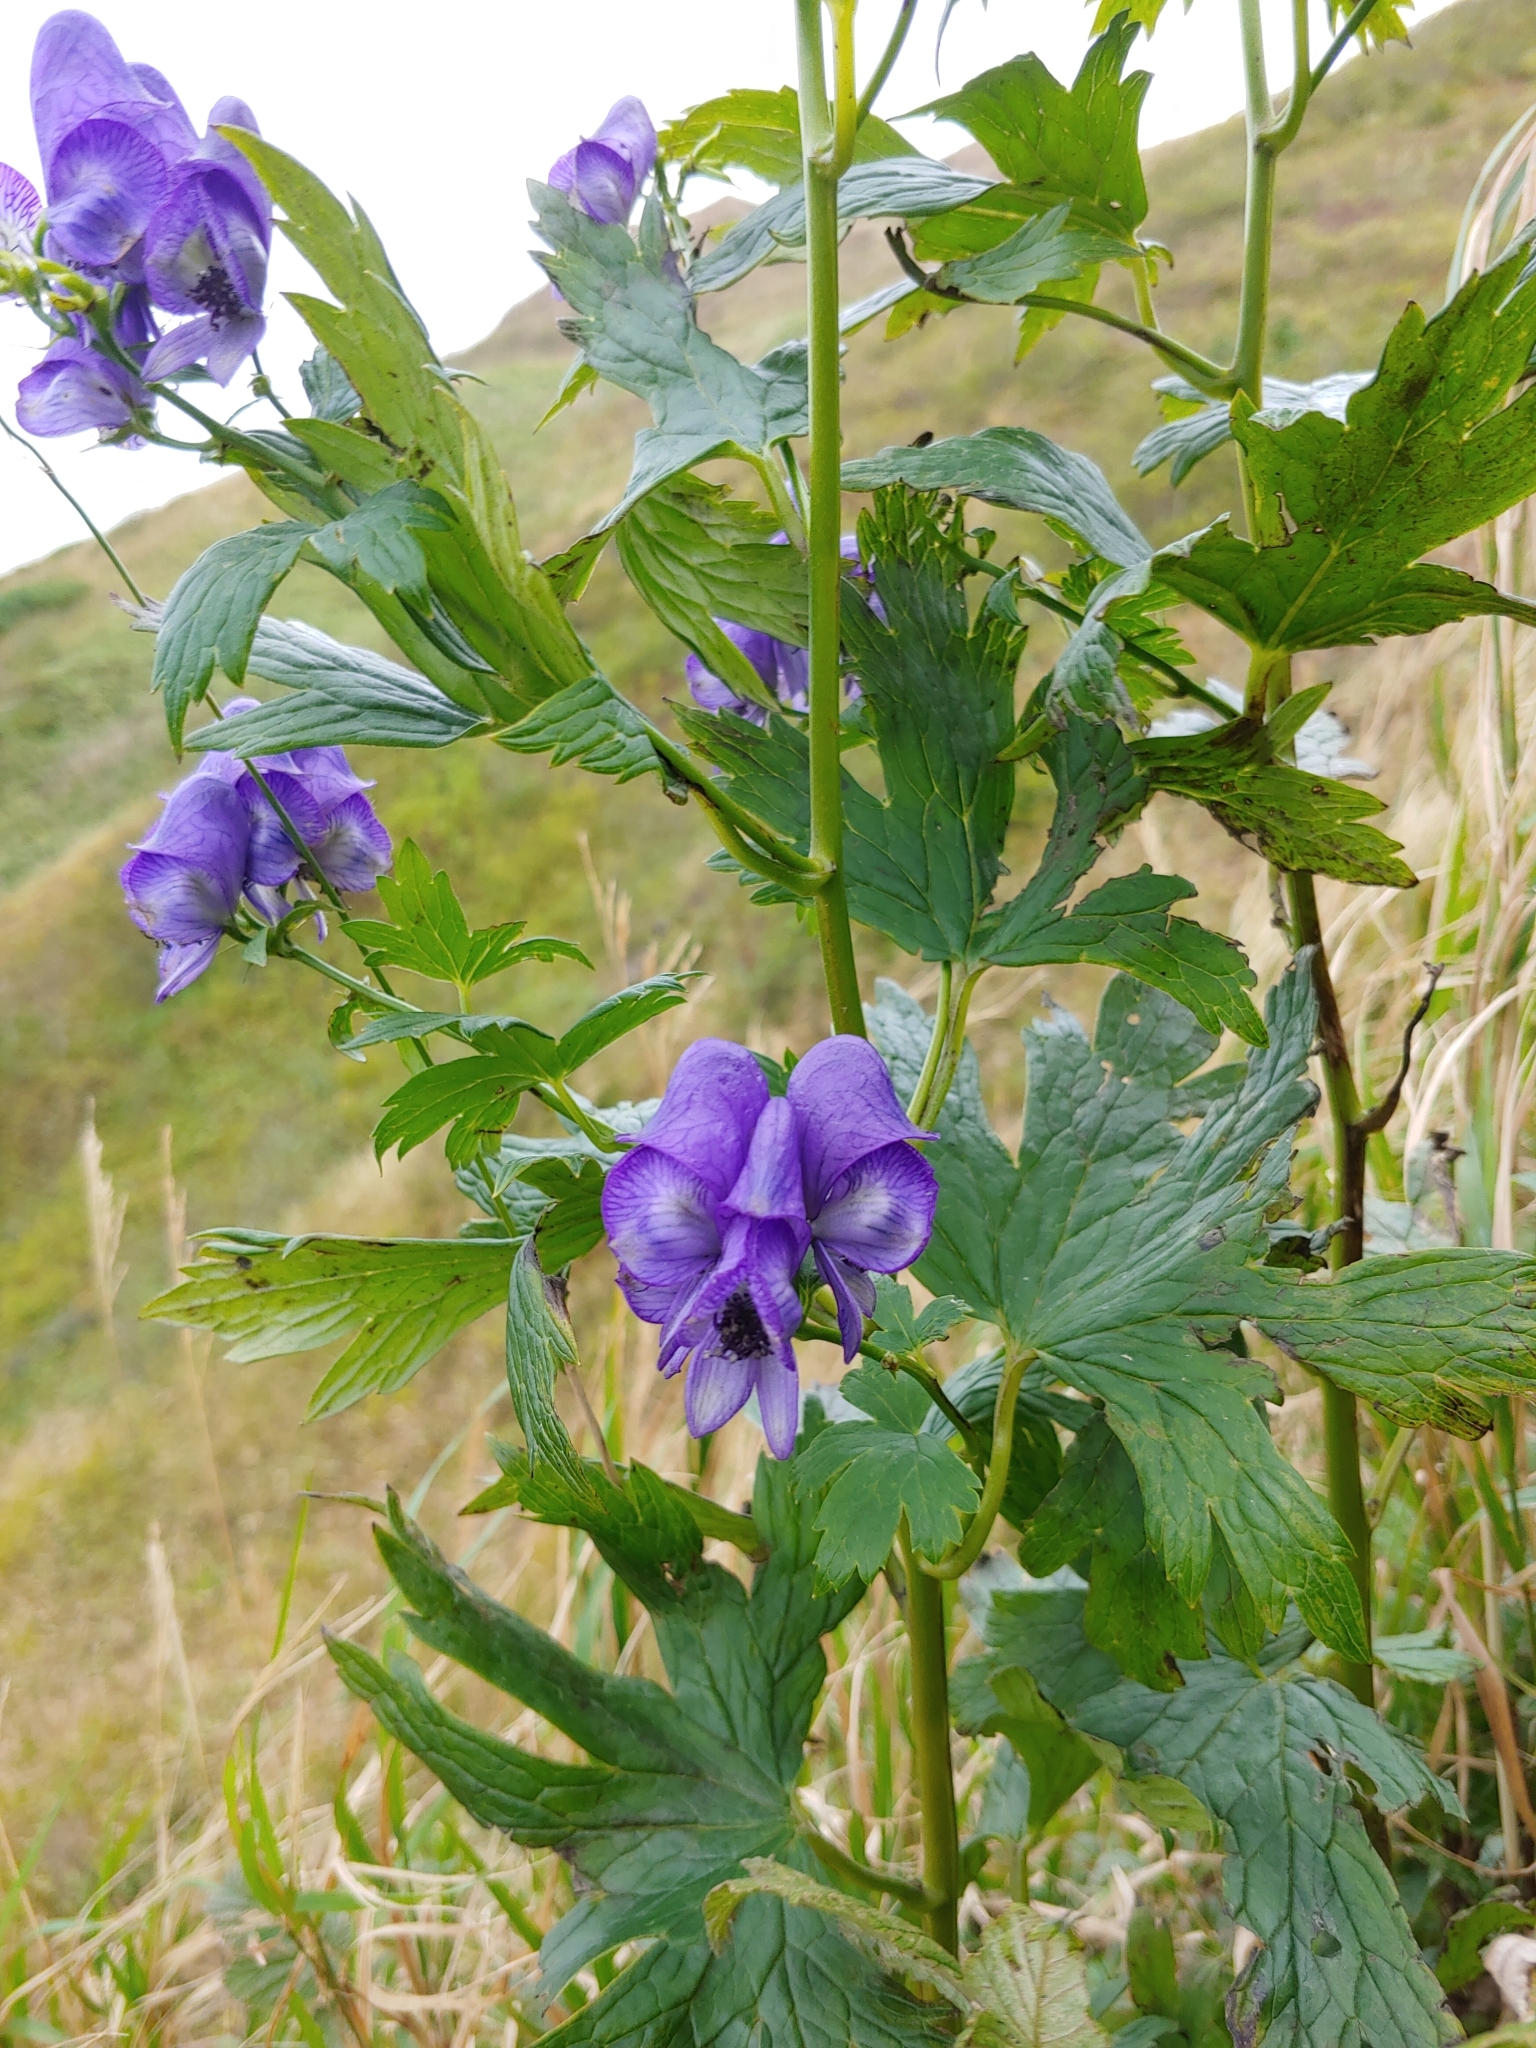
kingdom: Plantae
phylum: Tracheophyta
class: Magnoliopsida
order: Ranunculales
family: Ranunculaceae
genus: Aconitum
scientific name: Aconitum neosachalinense
